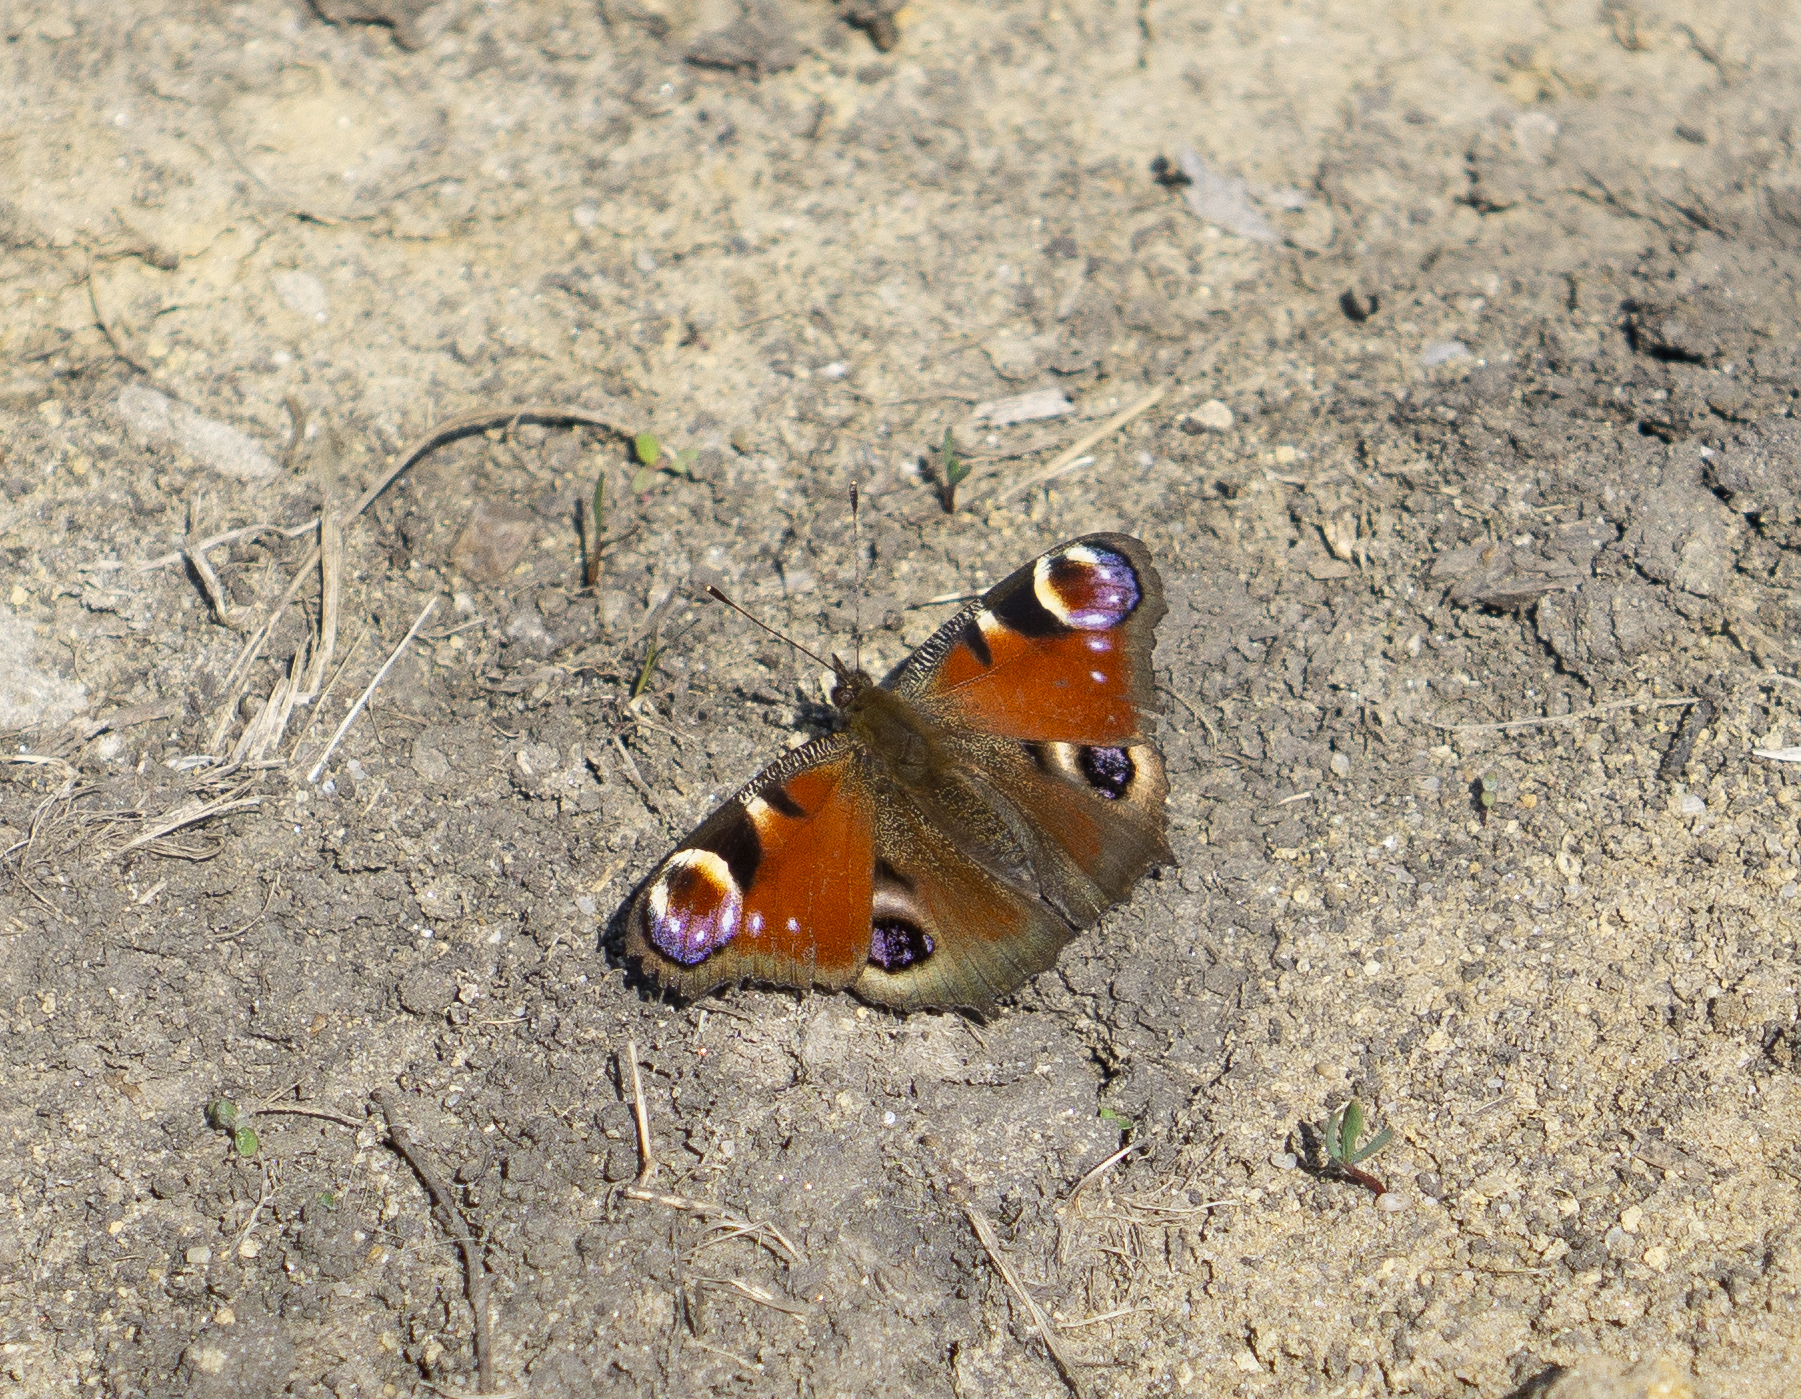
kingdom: Animalia
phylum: Arthropoda
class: Insecta
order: Lepidoptera
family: Nymphalidae
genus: Aglais
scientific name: Aglais io
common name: Peacock
